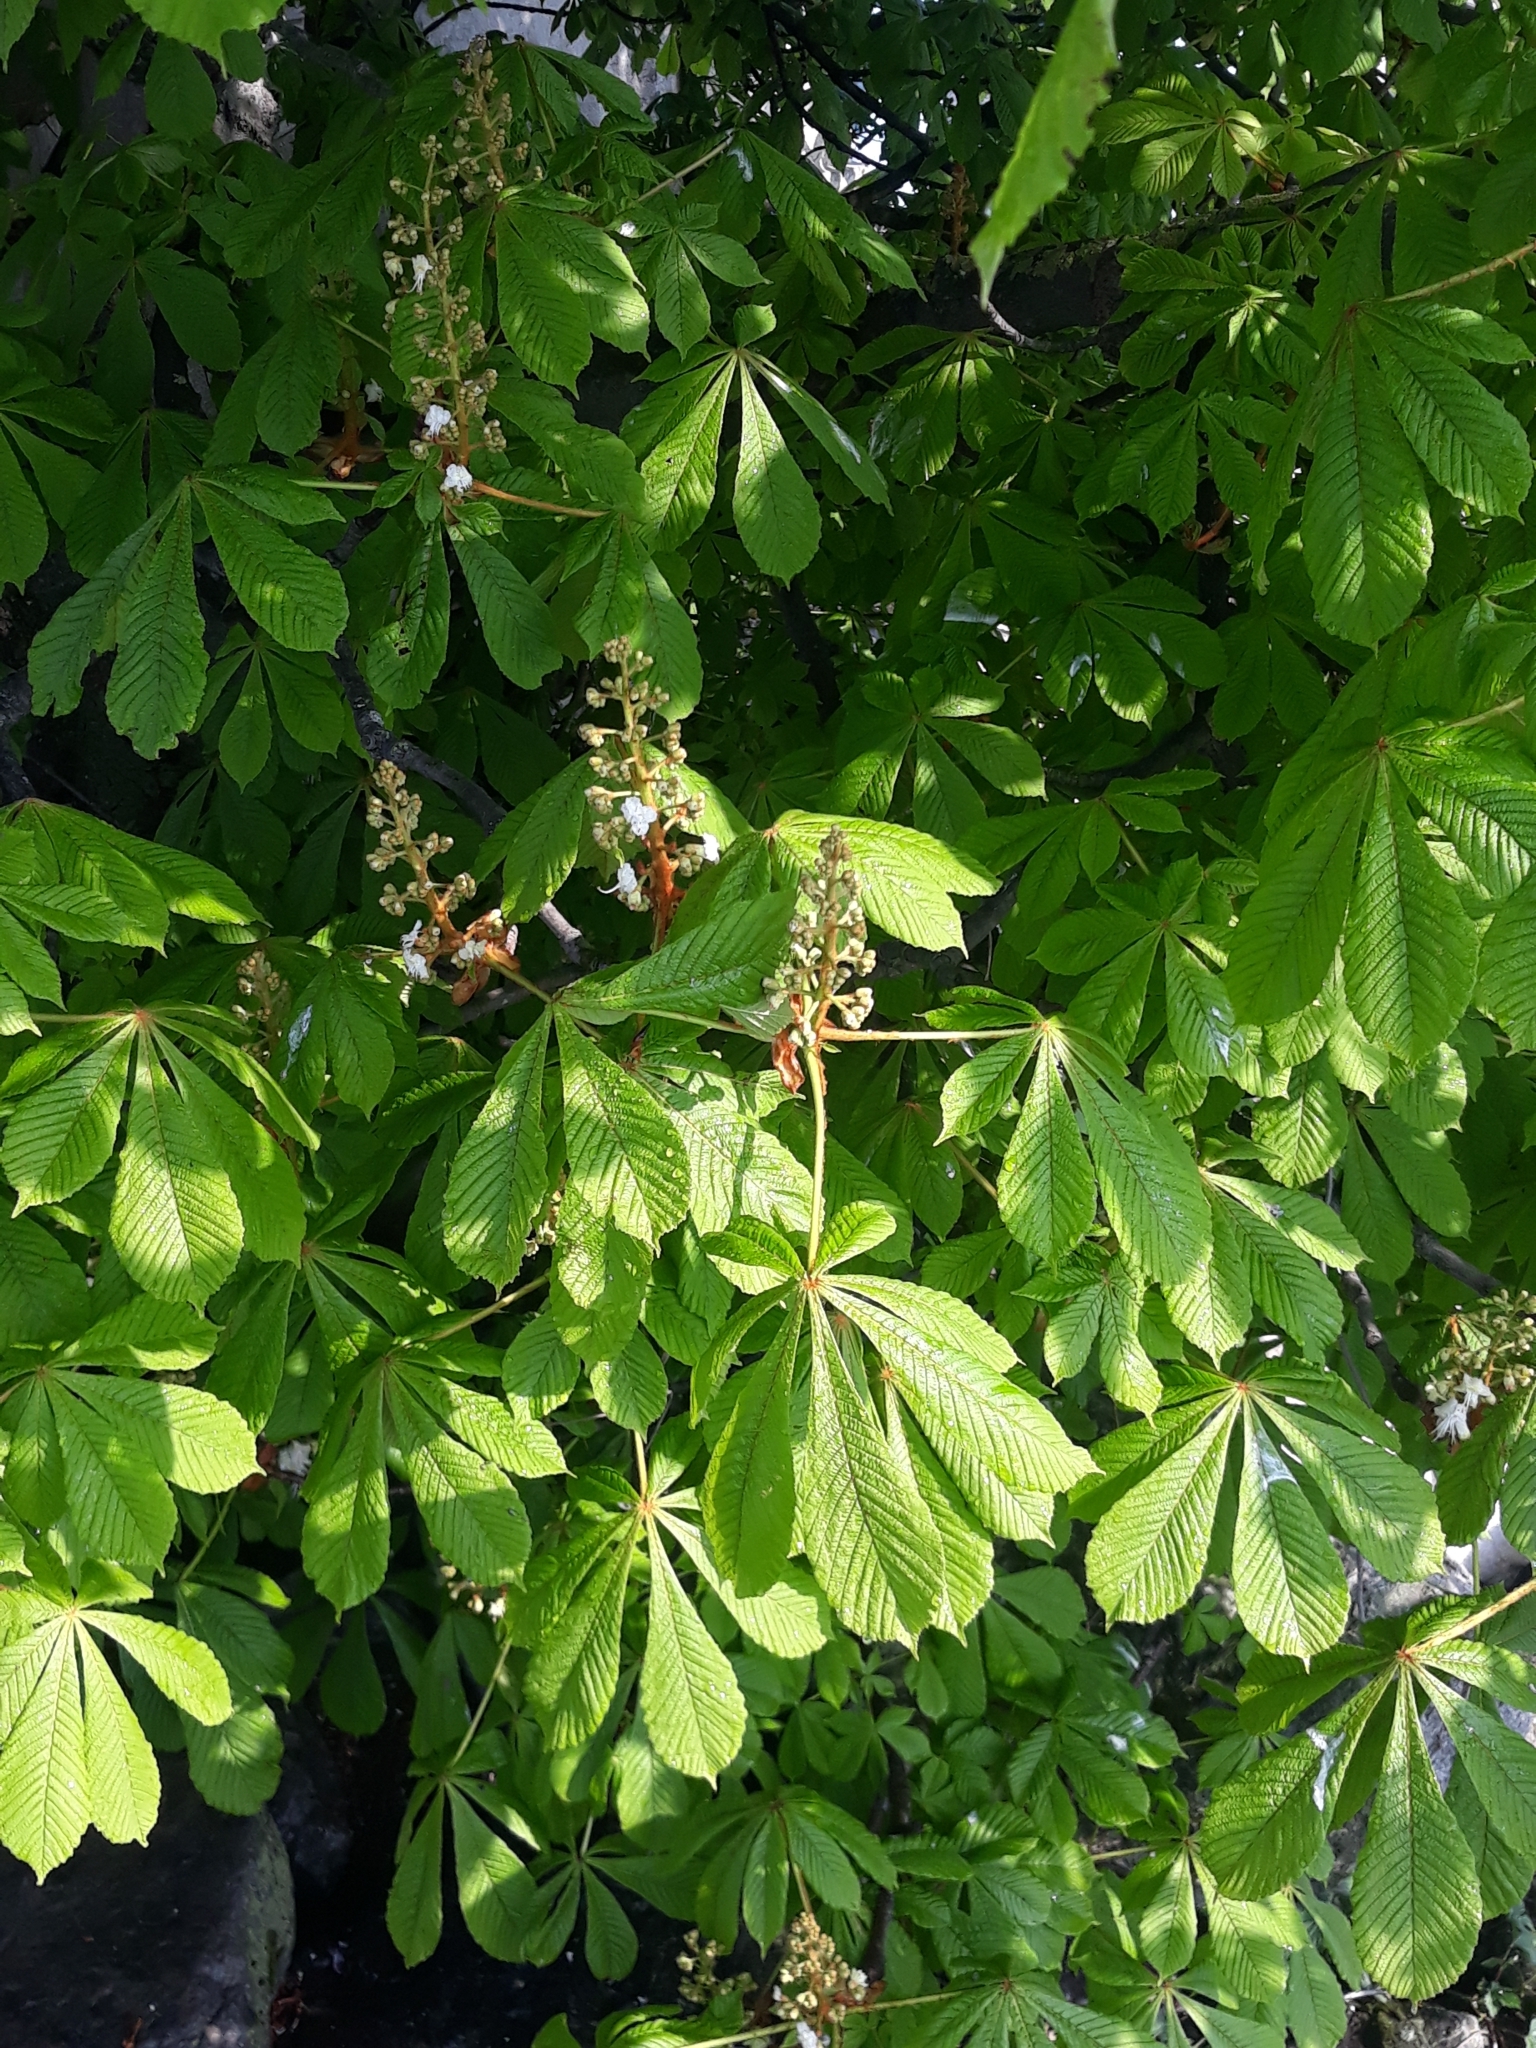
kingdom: Plantae
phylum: Tracheophyta
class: Magnoliopsida
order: Sapindales
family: Sapindaceae
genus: Aesculus
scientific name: Aesculus hippocastanum
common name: Horse-chestnut
